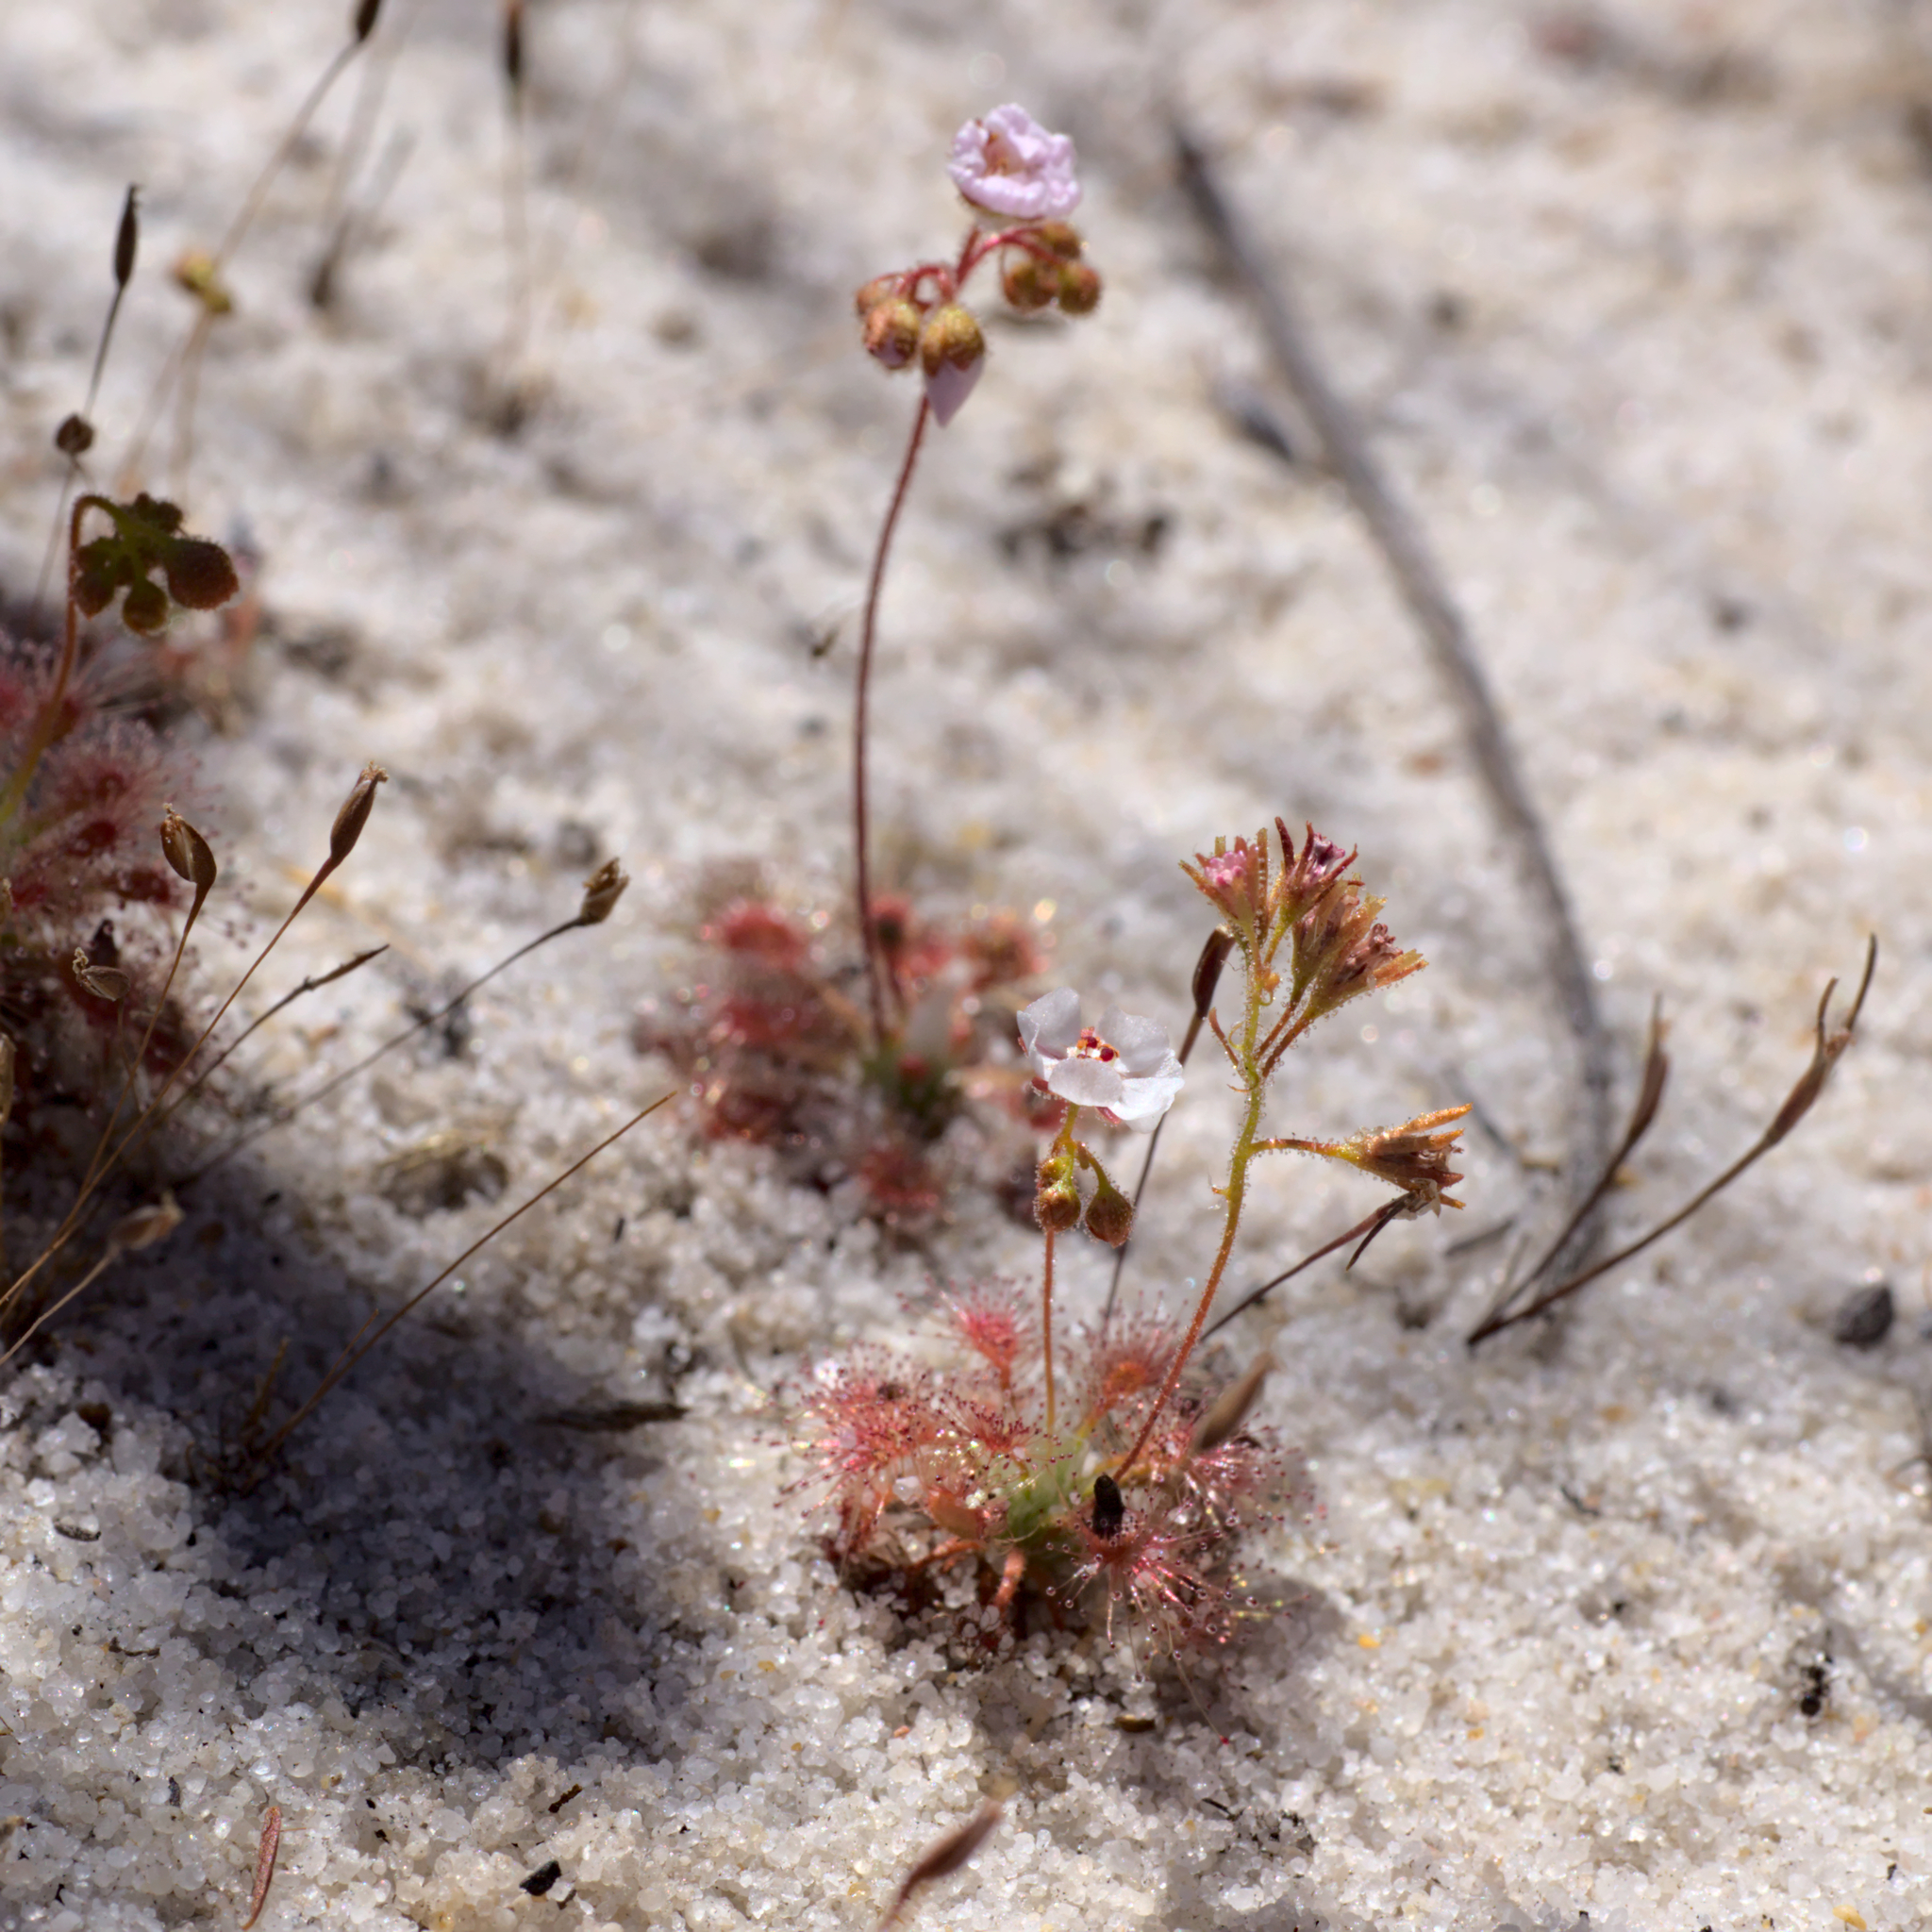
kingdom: Plantae
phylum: Tracheophyta
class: Magnoliopsida
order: Caryophyllales
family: Droseraceae
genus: Drosera
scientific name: Drosera patens
